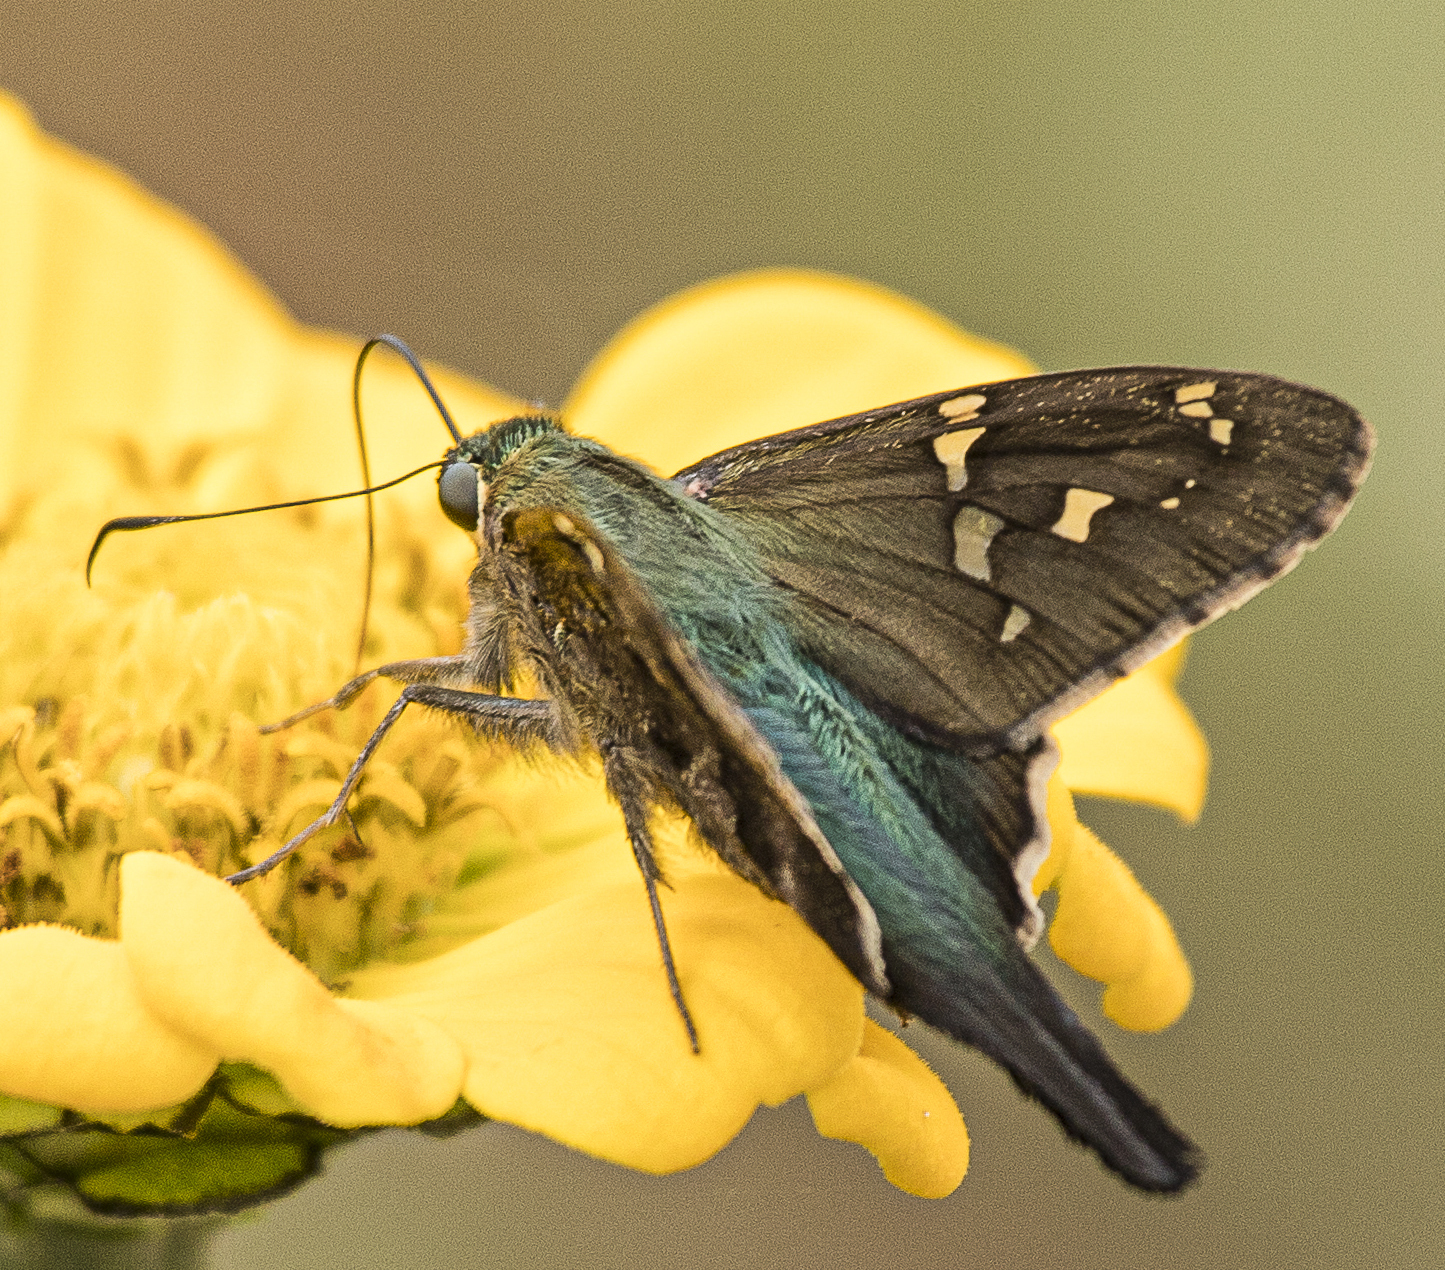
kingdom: Animalia
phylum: Arthropoda
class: Insecta
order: Lepidoptera
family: Hesperiidae
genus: Urbanus
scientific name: Urbanus proteus
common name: Long-tailed skipper
